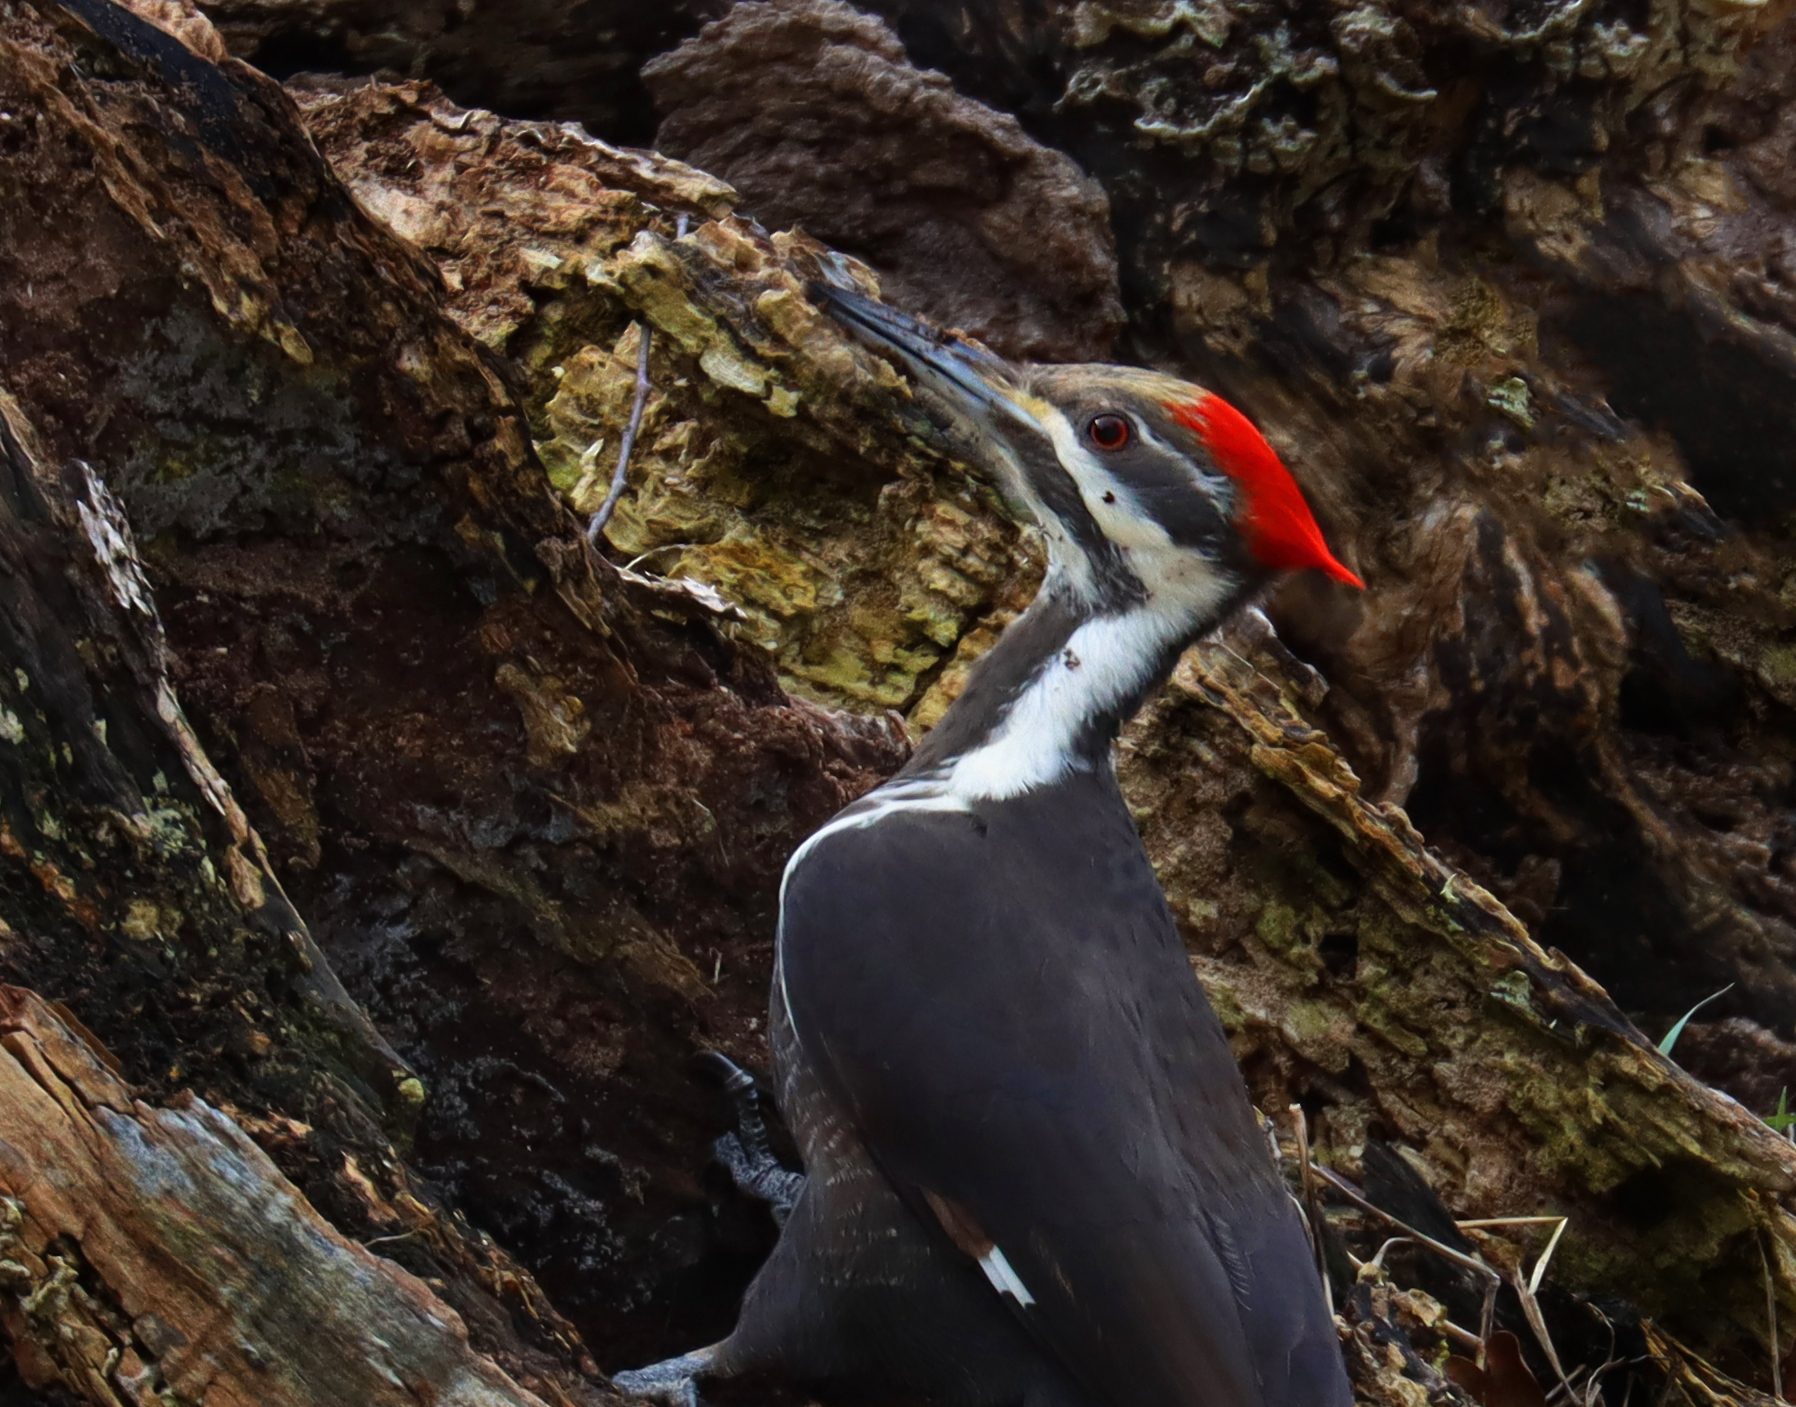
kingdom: Animalia
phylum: Chordata
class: Aves
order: Piciformes
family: Picidae
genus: Dryocopus
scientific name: Dryocopus pileatus
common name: Pileated woodpecker
